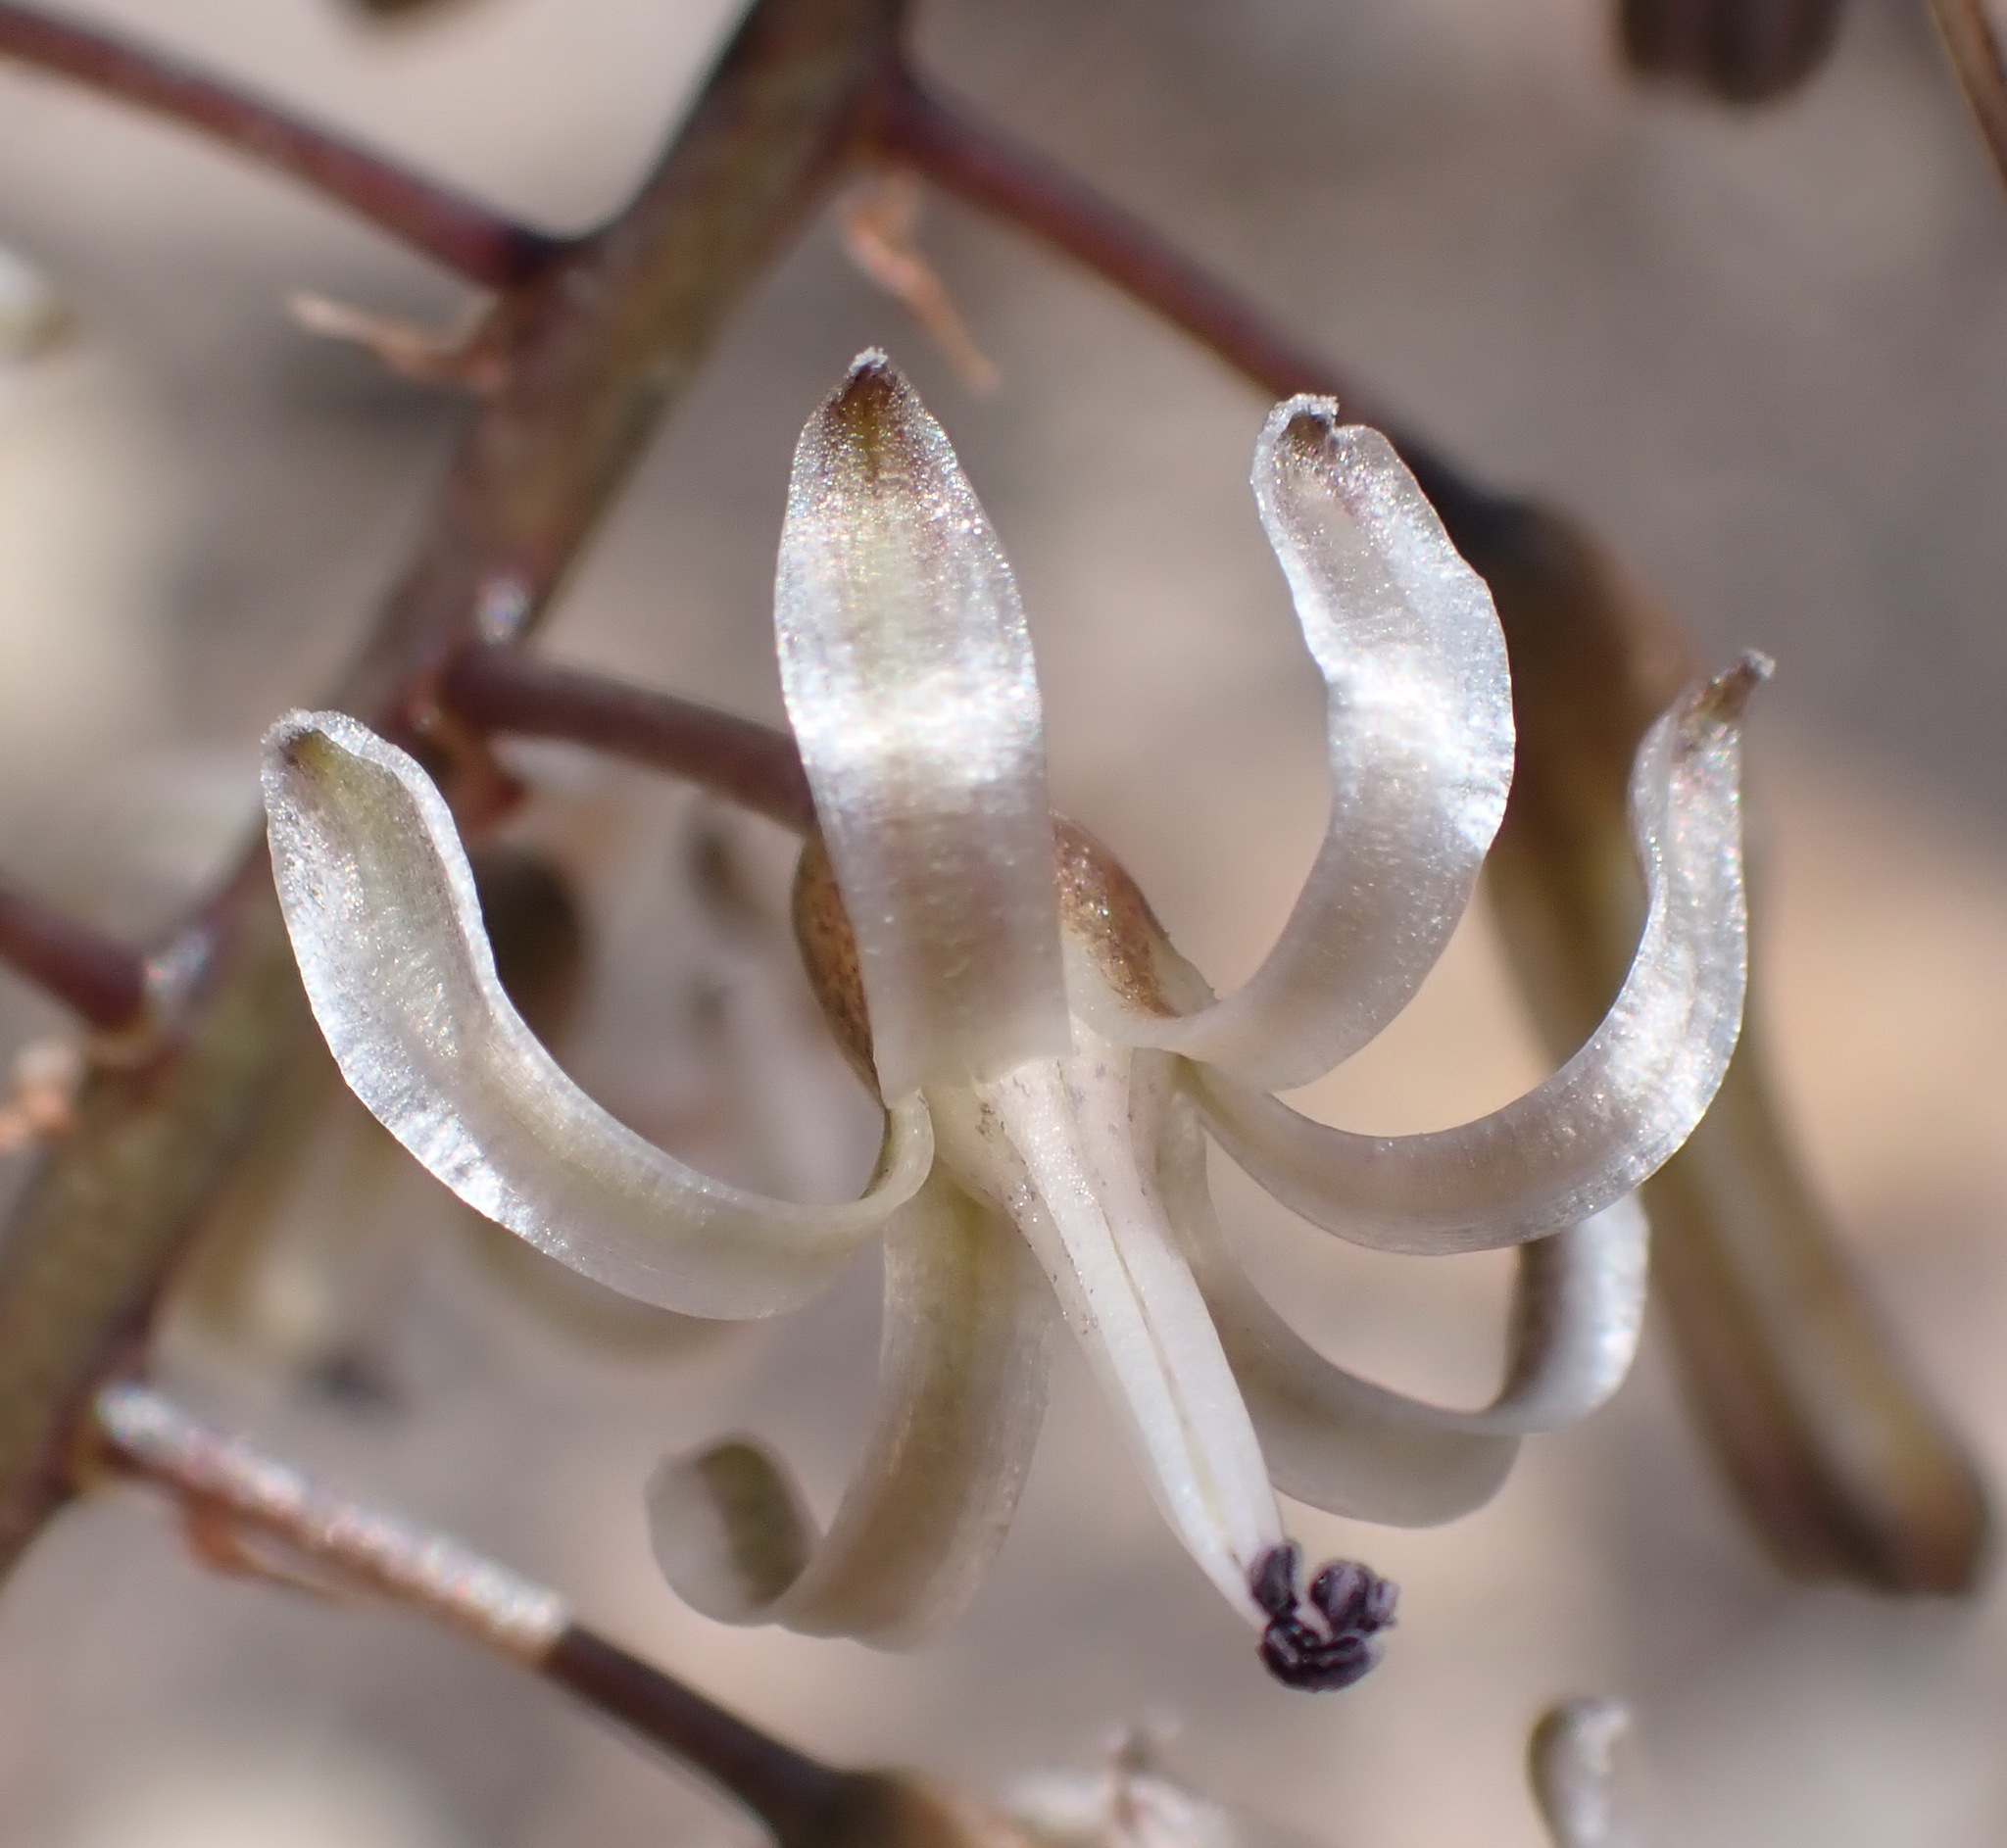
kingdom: Plantae
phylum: Tracheophyta
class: Liliopsida
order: Asparagales
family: Asparagaceae
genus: Drimia
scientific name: Drimia media
